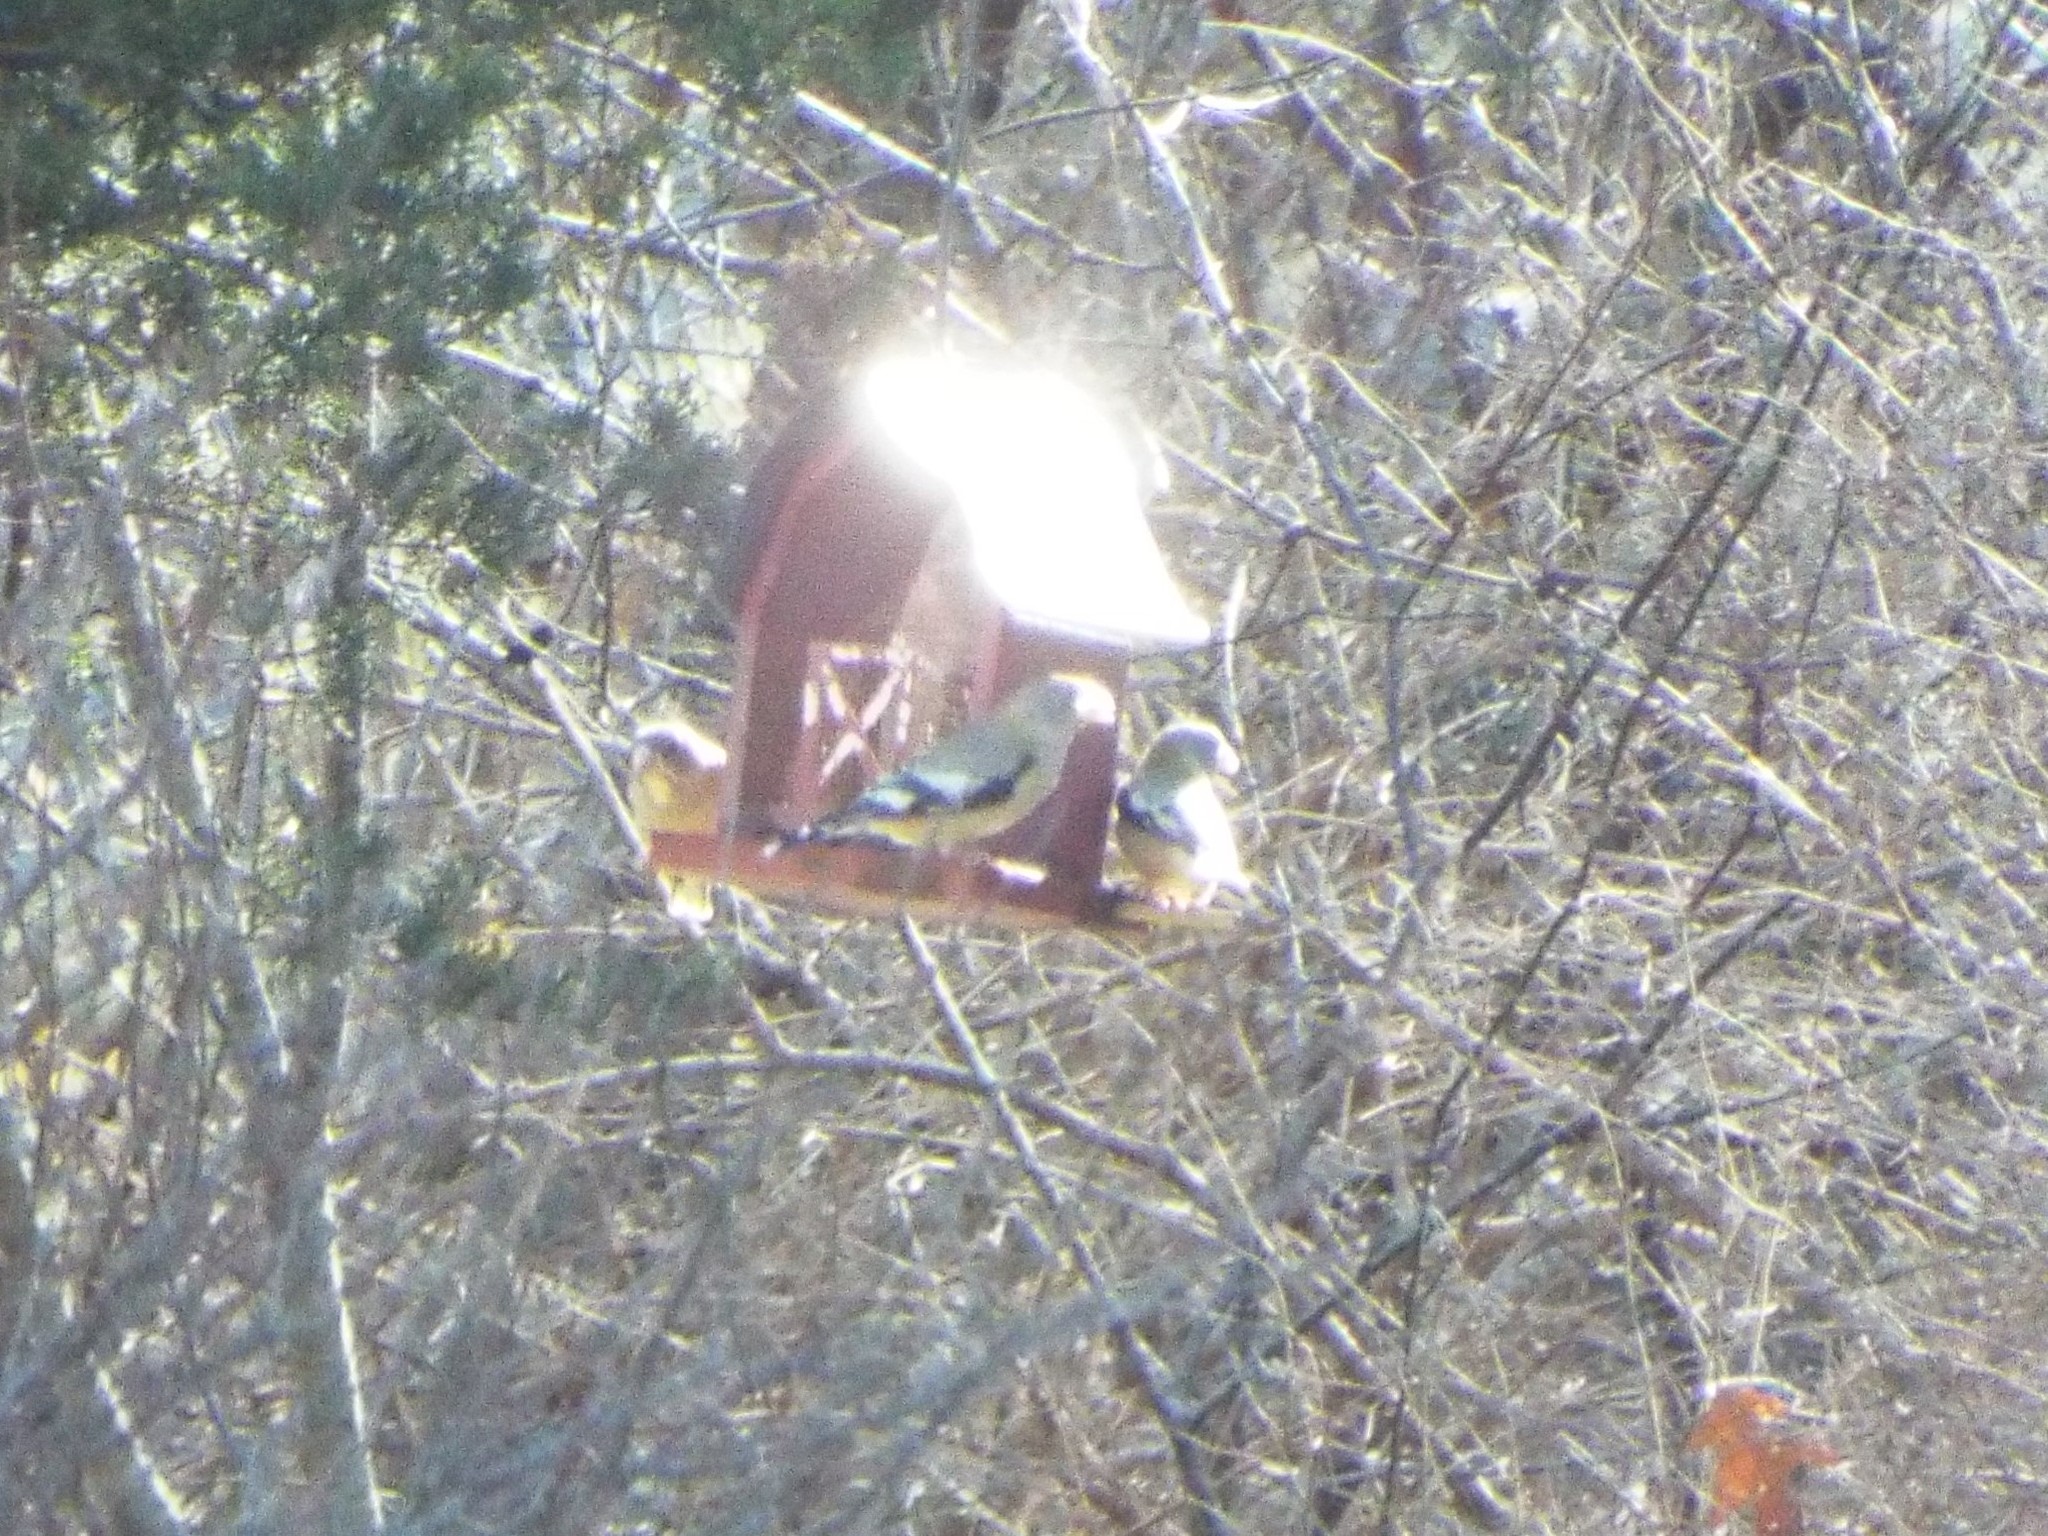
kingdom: Animalia
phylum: Chordata
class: Aves
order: Passeriformes
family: Fringillidae
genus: Hesperiphona
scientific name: Hesperiphona vespertina
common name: Evening grosbeak
